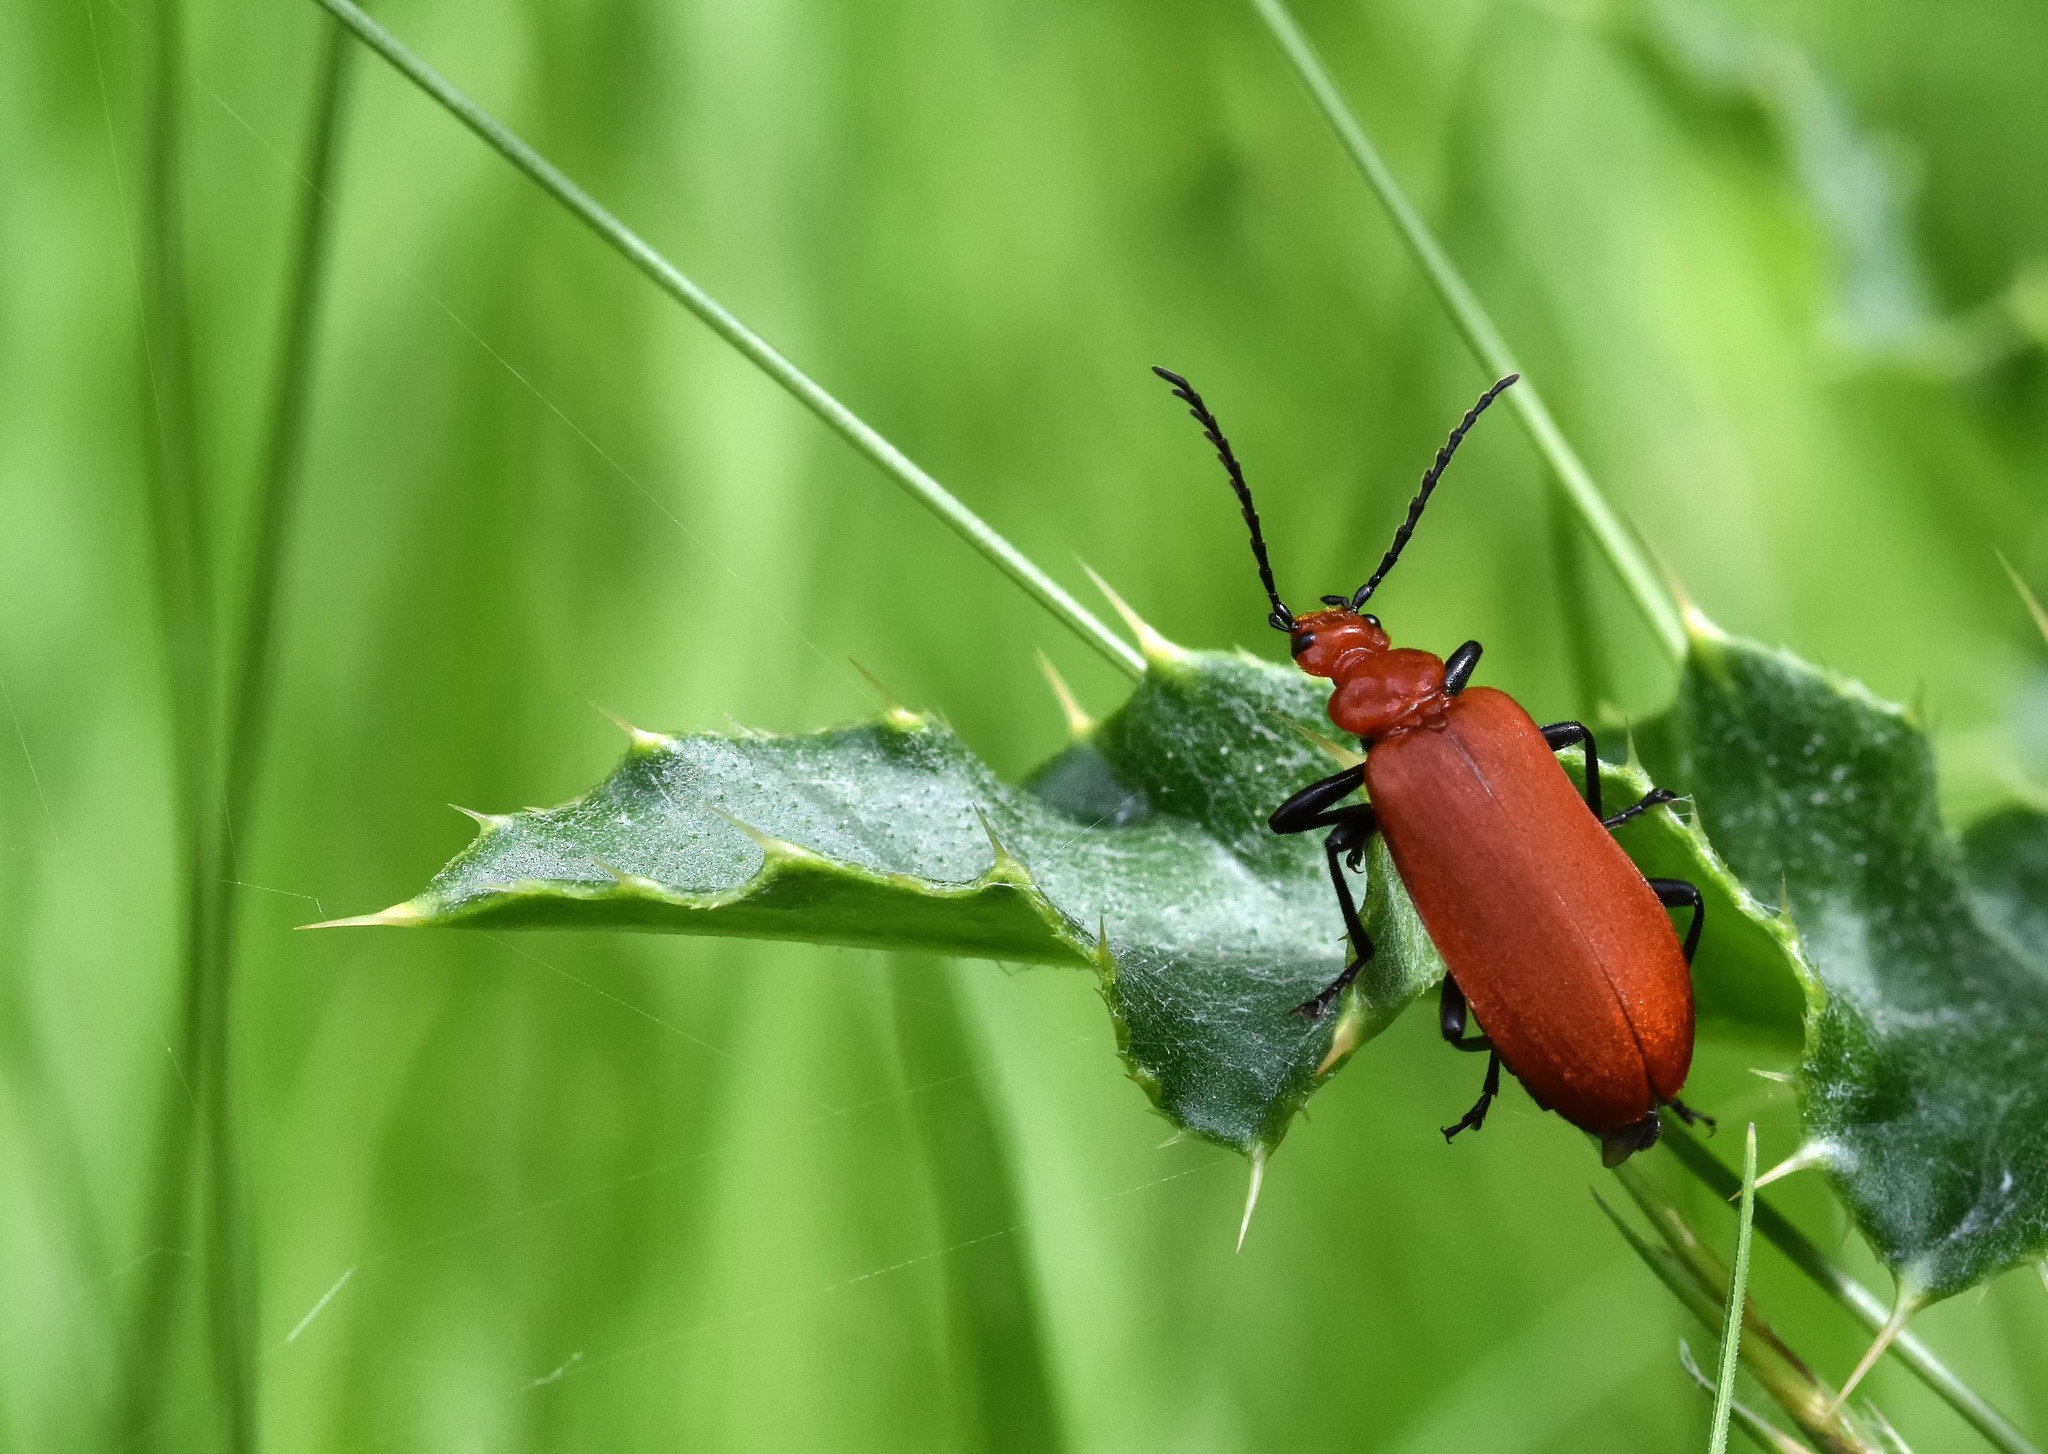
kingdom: Animalia
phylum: Arthropoda
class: Insecta
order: Coleoptera
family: Pyrochroidae
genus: Pyrochroa
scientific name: Pyrochroa serraticornis
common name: Red-headed cardinal beetle
